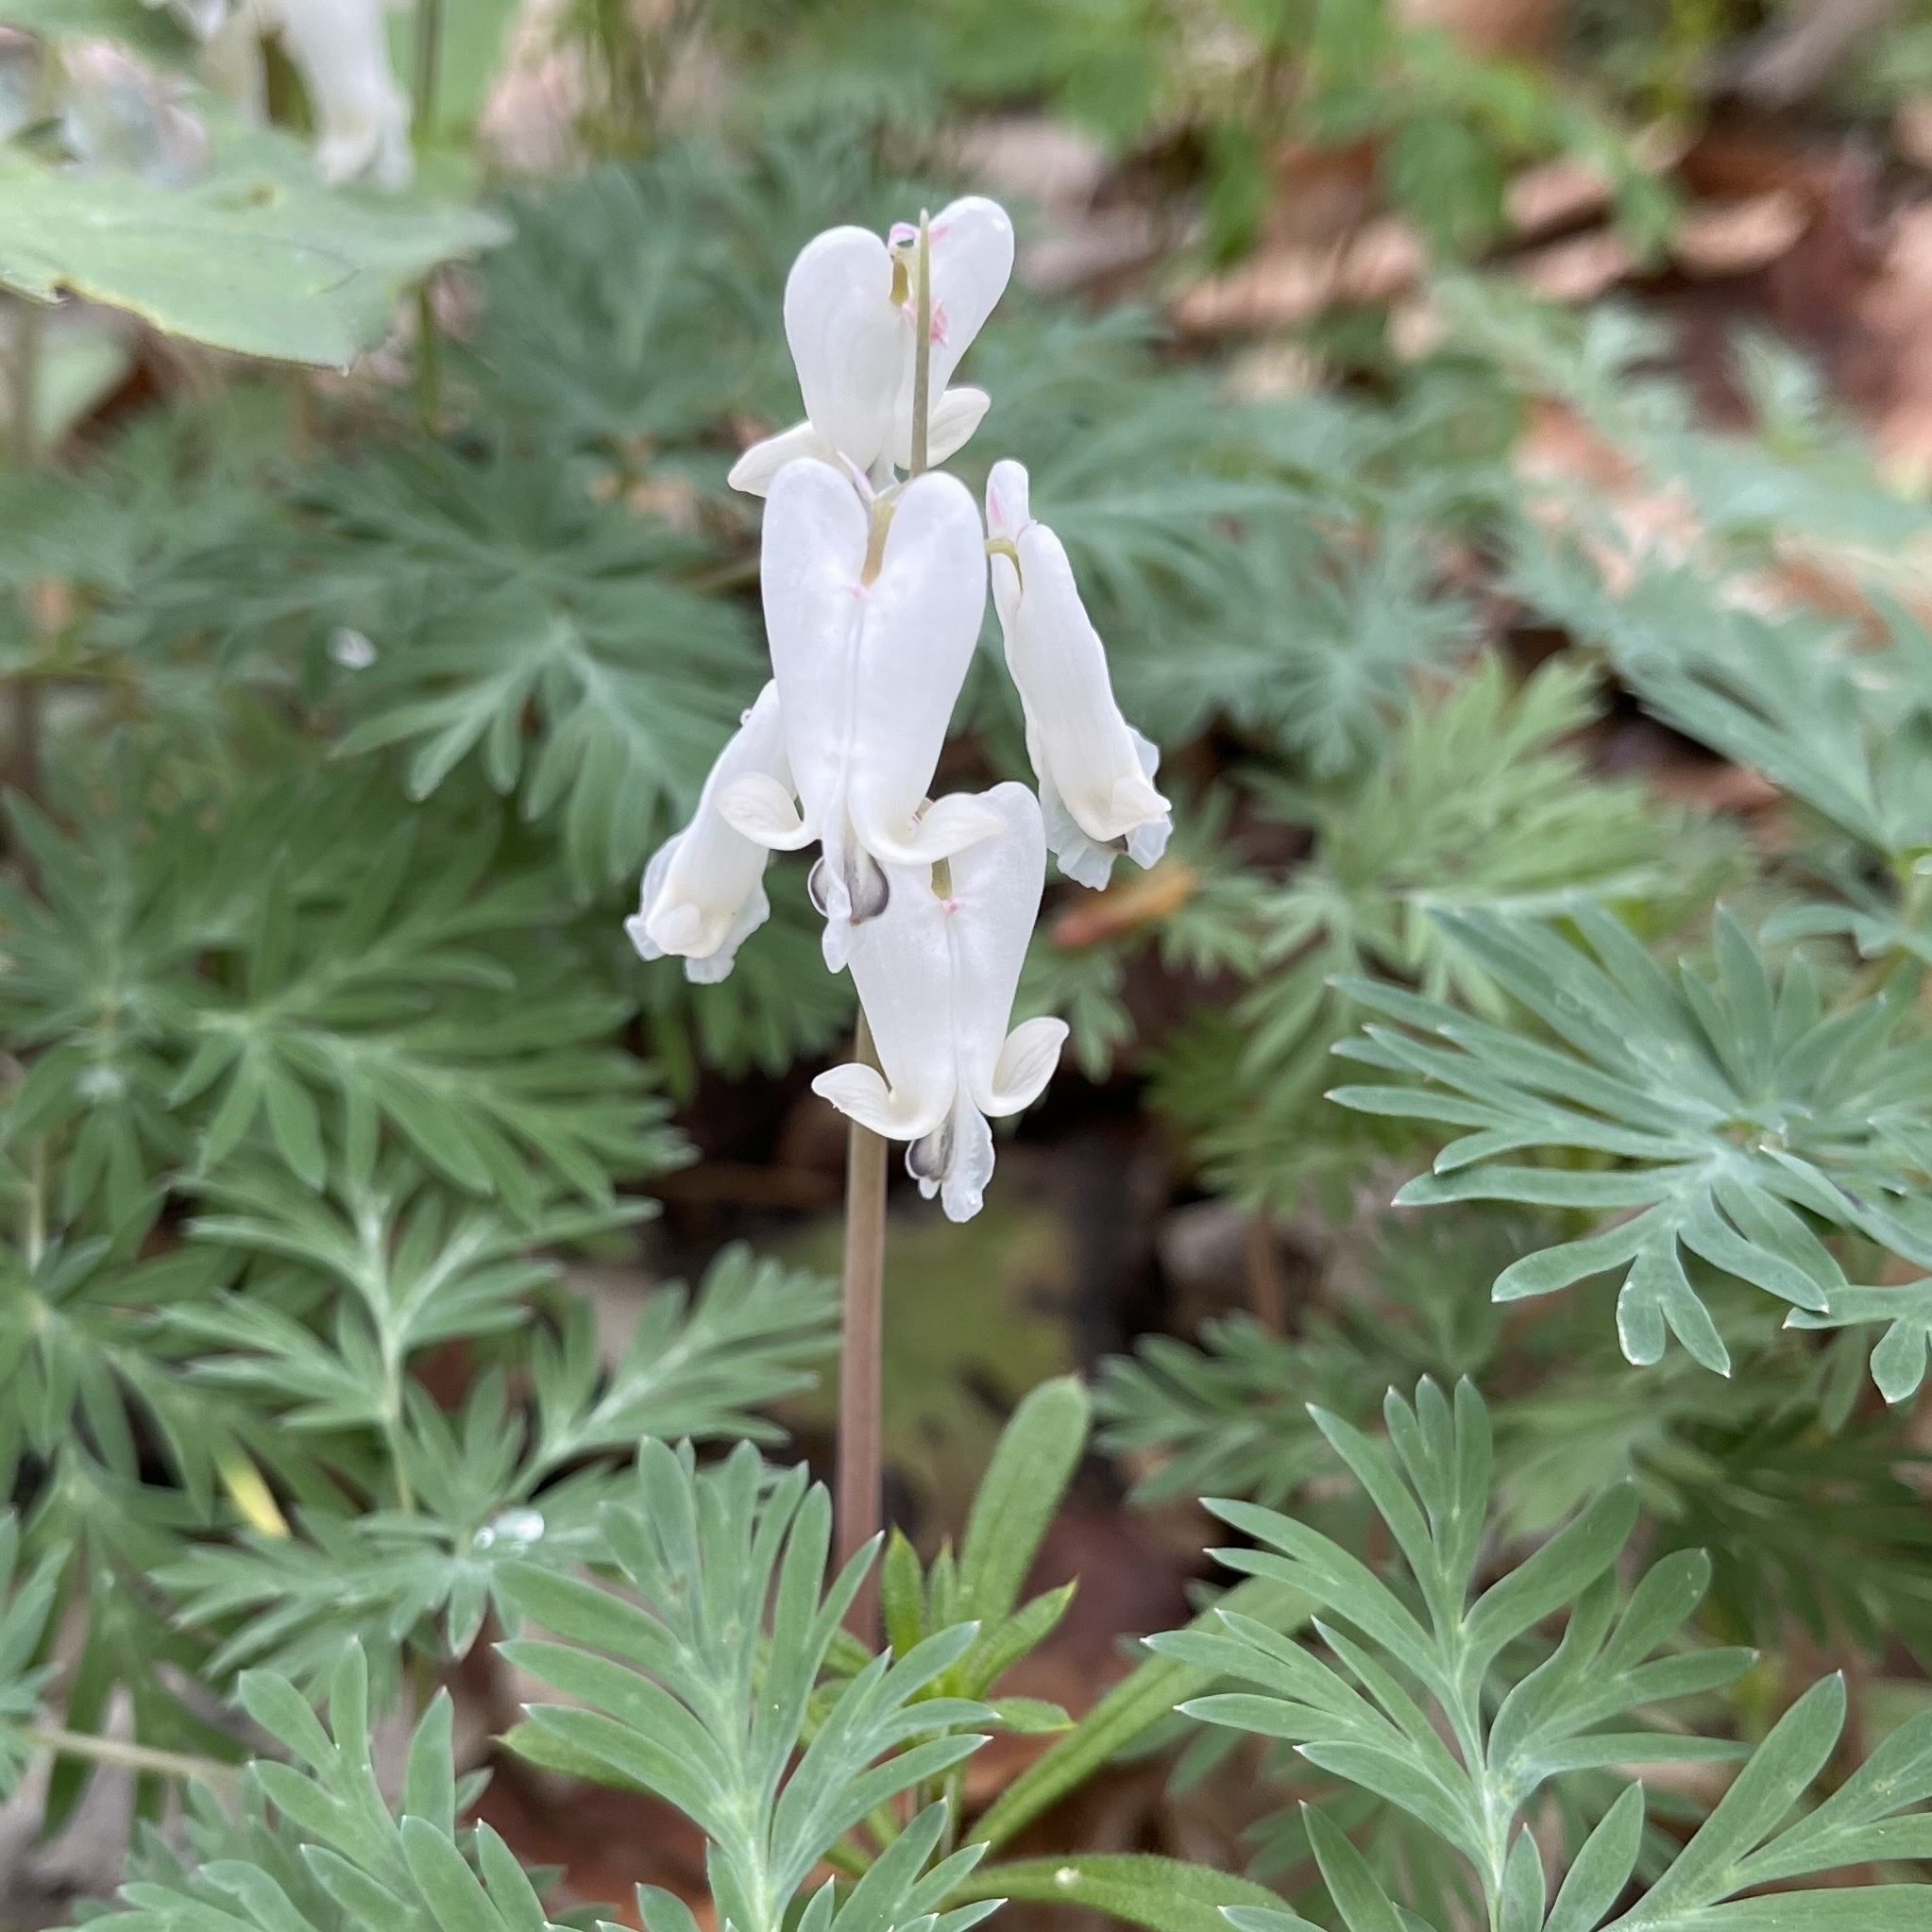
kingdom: Plantae
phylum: Tracheophyta
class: Magnoliopsida
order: Ranunculales
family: Papaveraceae
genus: Dicentra
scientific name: Dicentra canadensis
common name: Squirrel-corn
